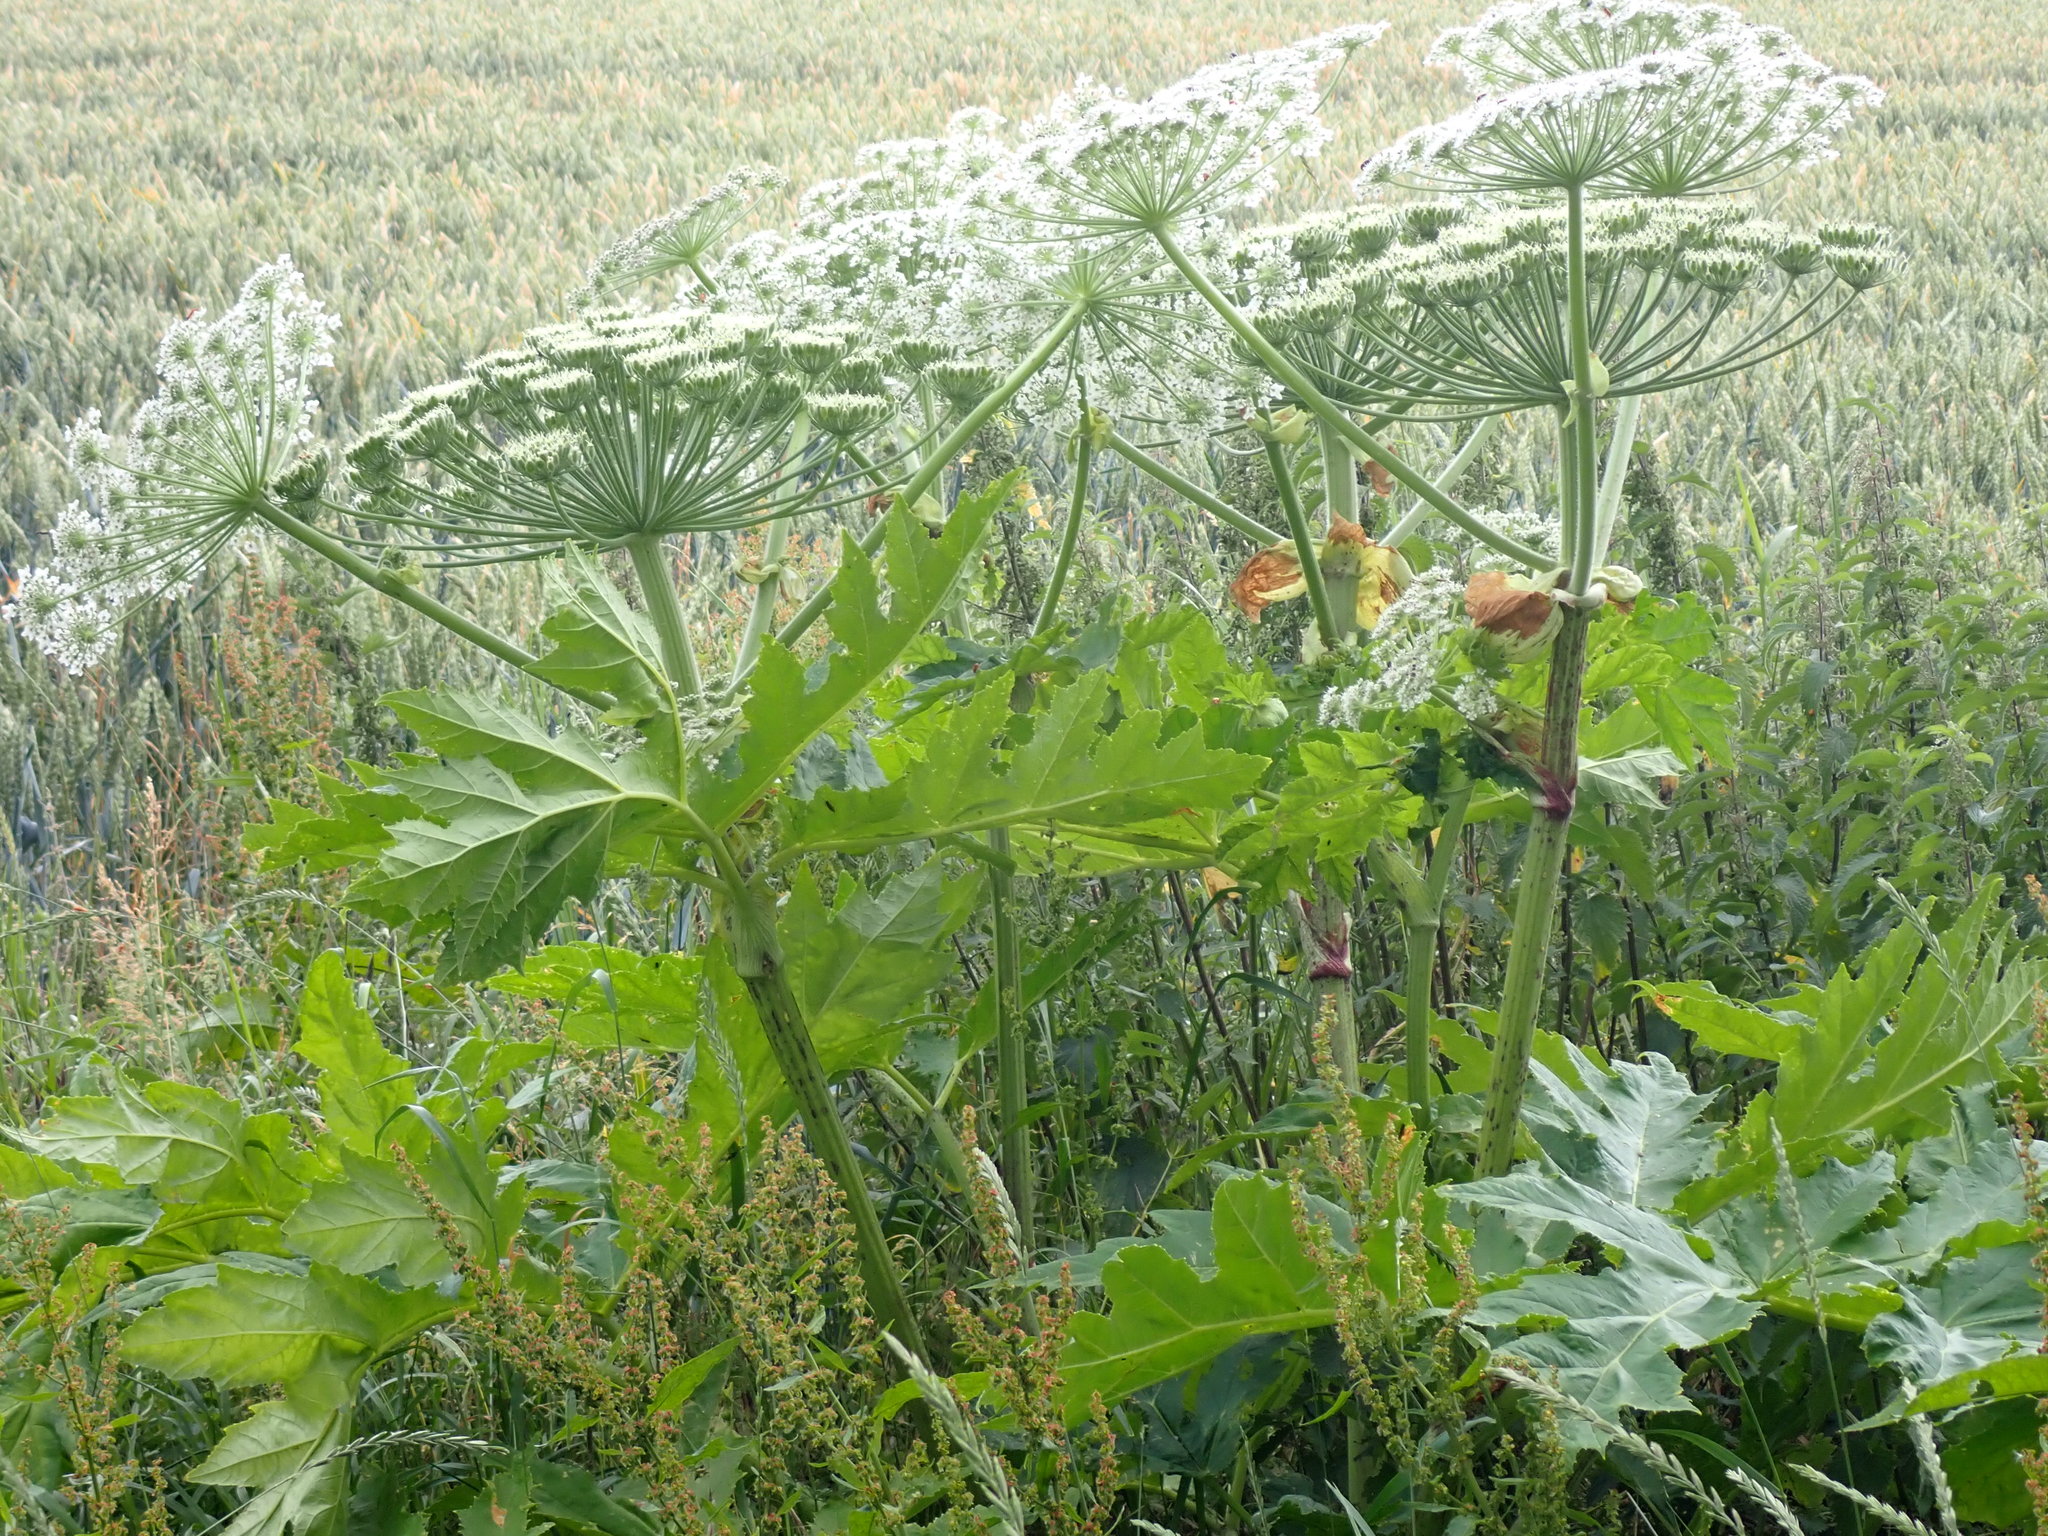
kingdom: Plantae
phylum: Tracheophyta
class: Magnoliopsida
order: Apiales
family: Apiaceae
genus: Heracleum
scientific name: Heracleum mantegazzianum
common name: Giant hogweed
